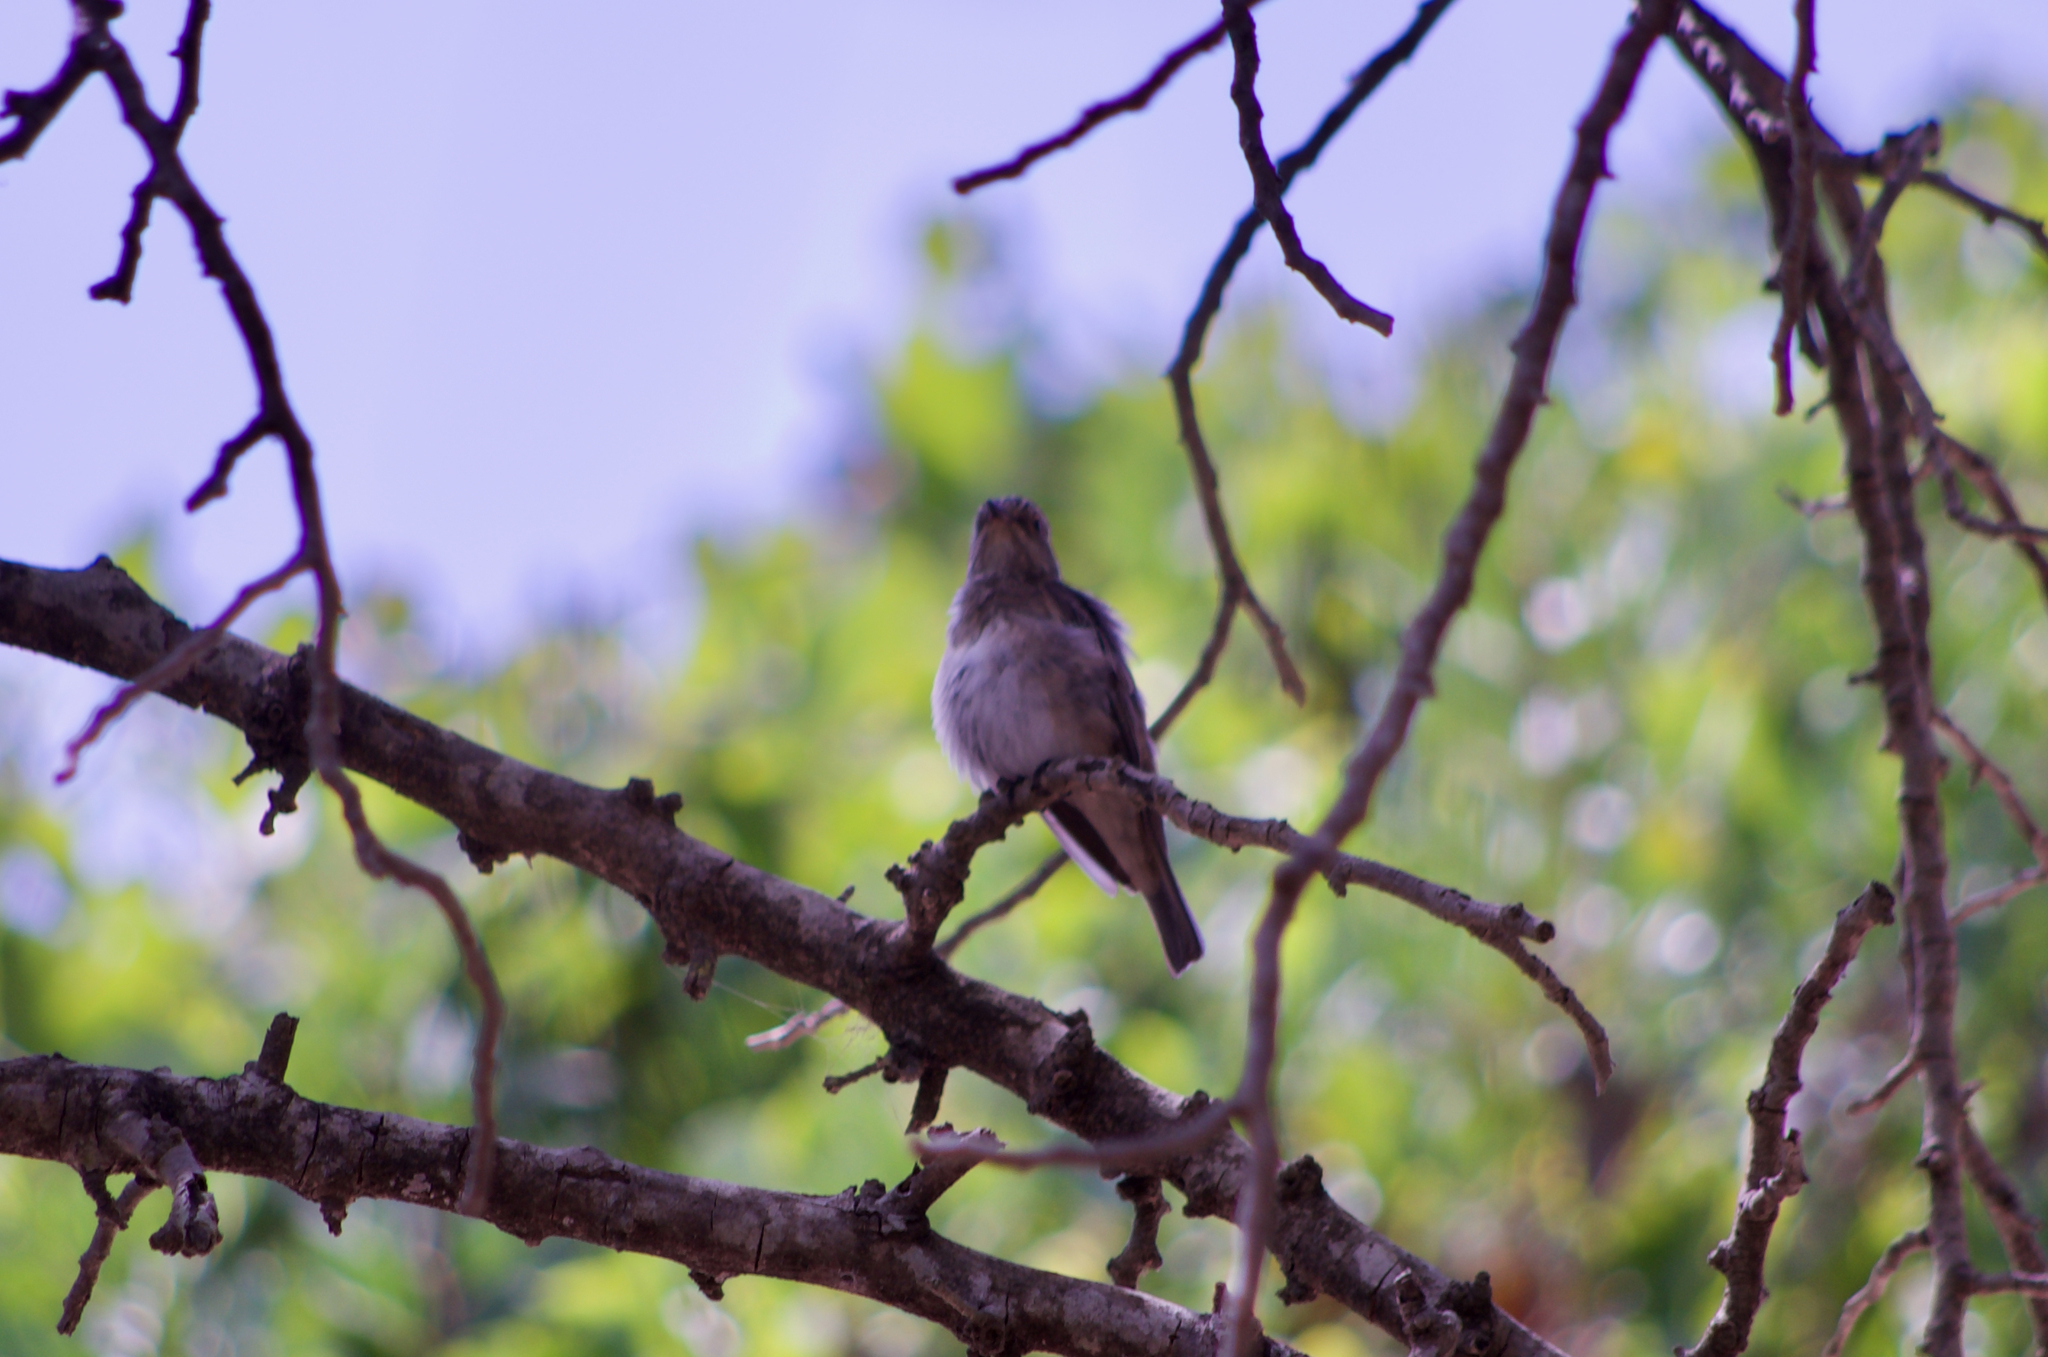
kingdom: Animalia
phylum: Chordata
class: Aves
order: Passeriformes
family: Muscicapidae
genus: Muscicapa
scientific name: Muscicapa striata
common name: Spotted flycatcher
